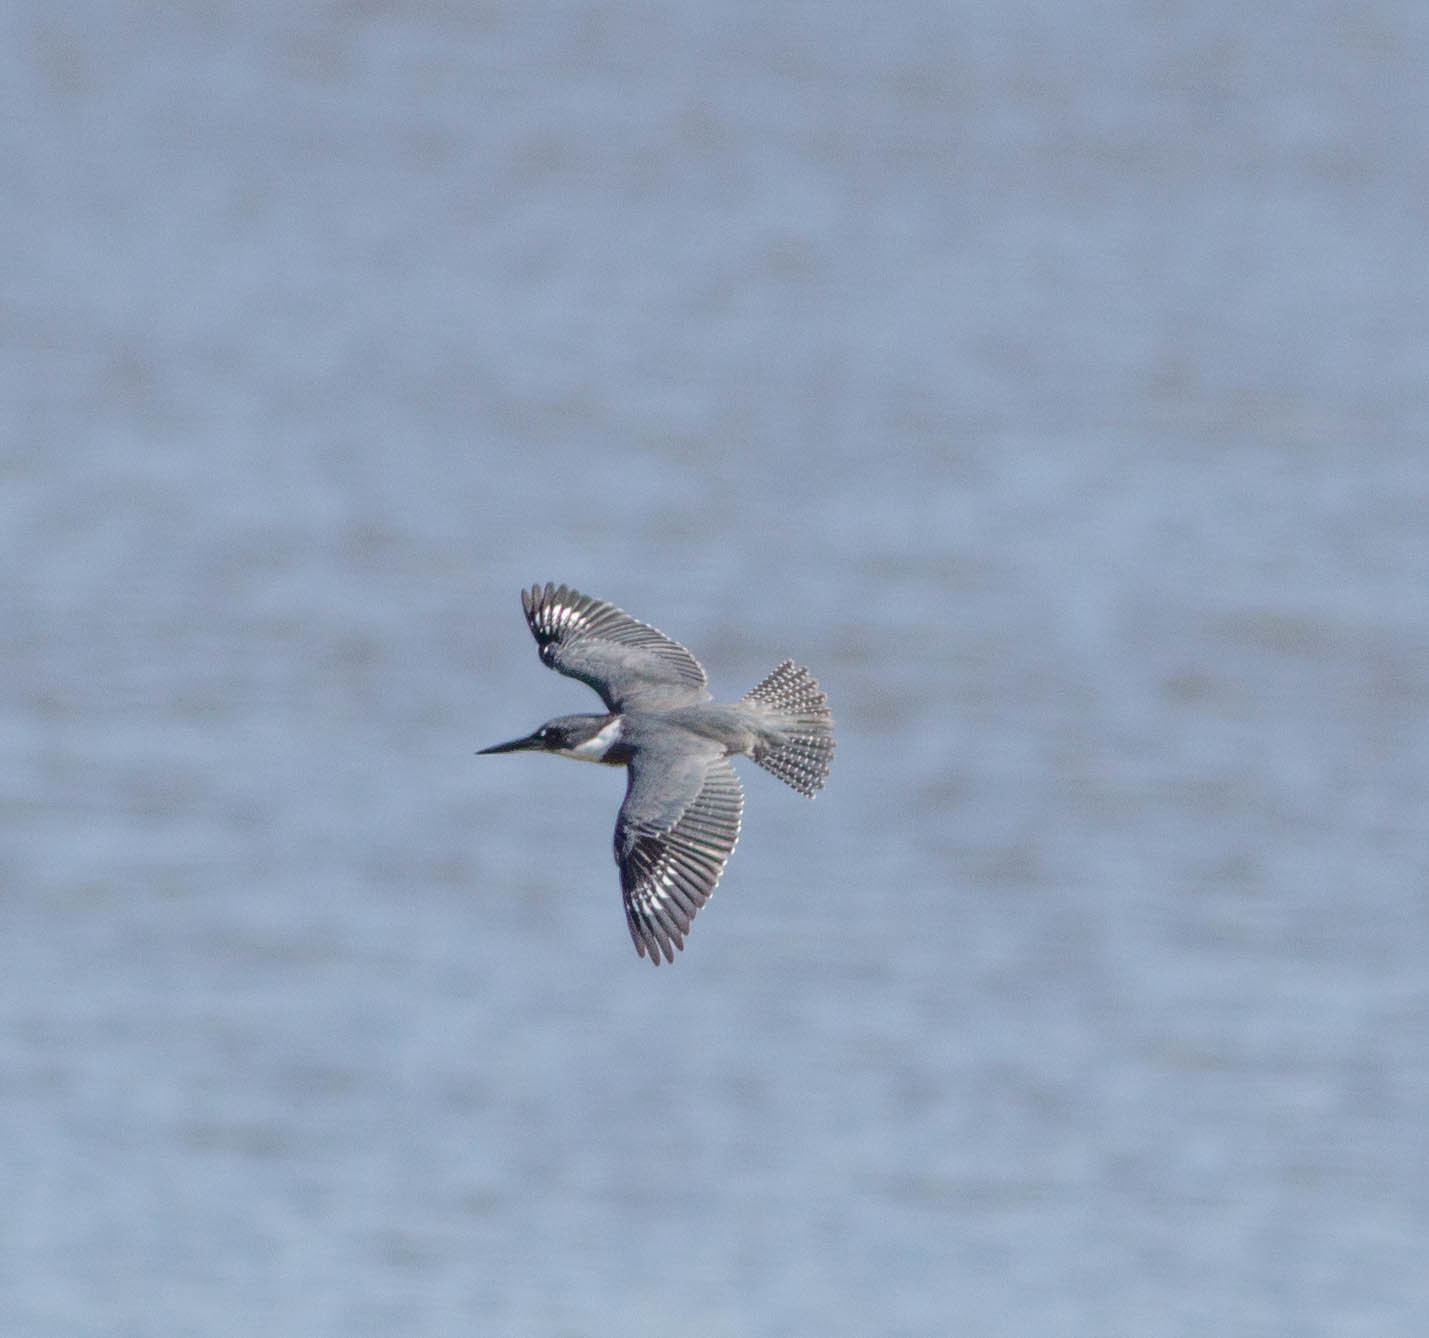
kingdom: Animalia
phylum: Chordata
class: Aves
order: Coraciiformes
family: Alcedinidae
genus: Megaceryle
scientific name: Megaceryle alcyon
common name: Belted kingfisher
